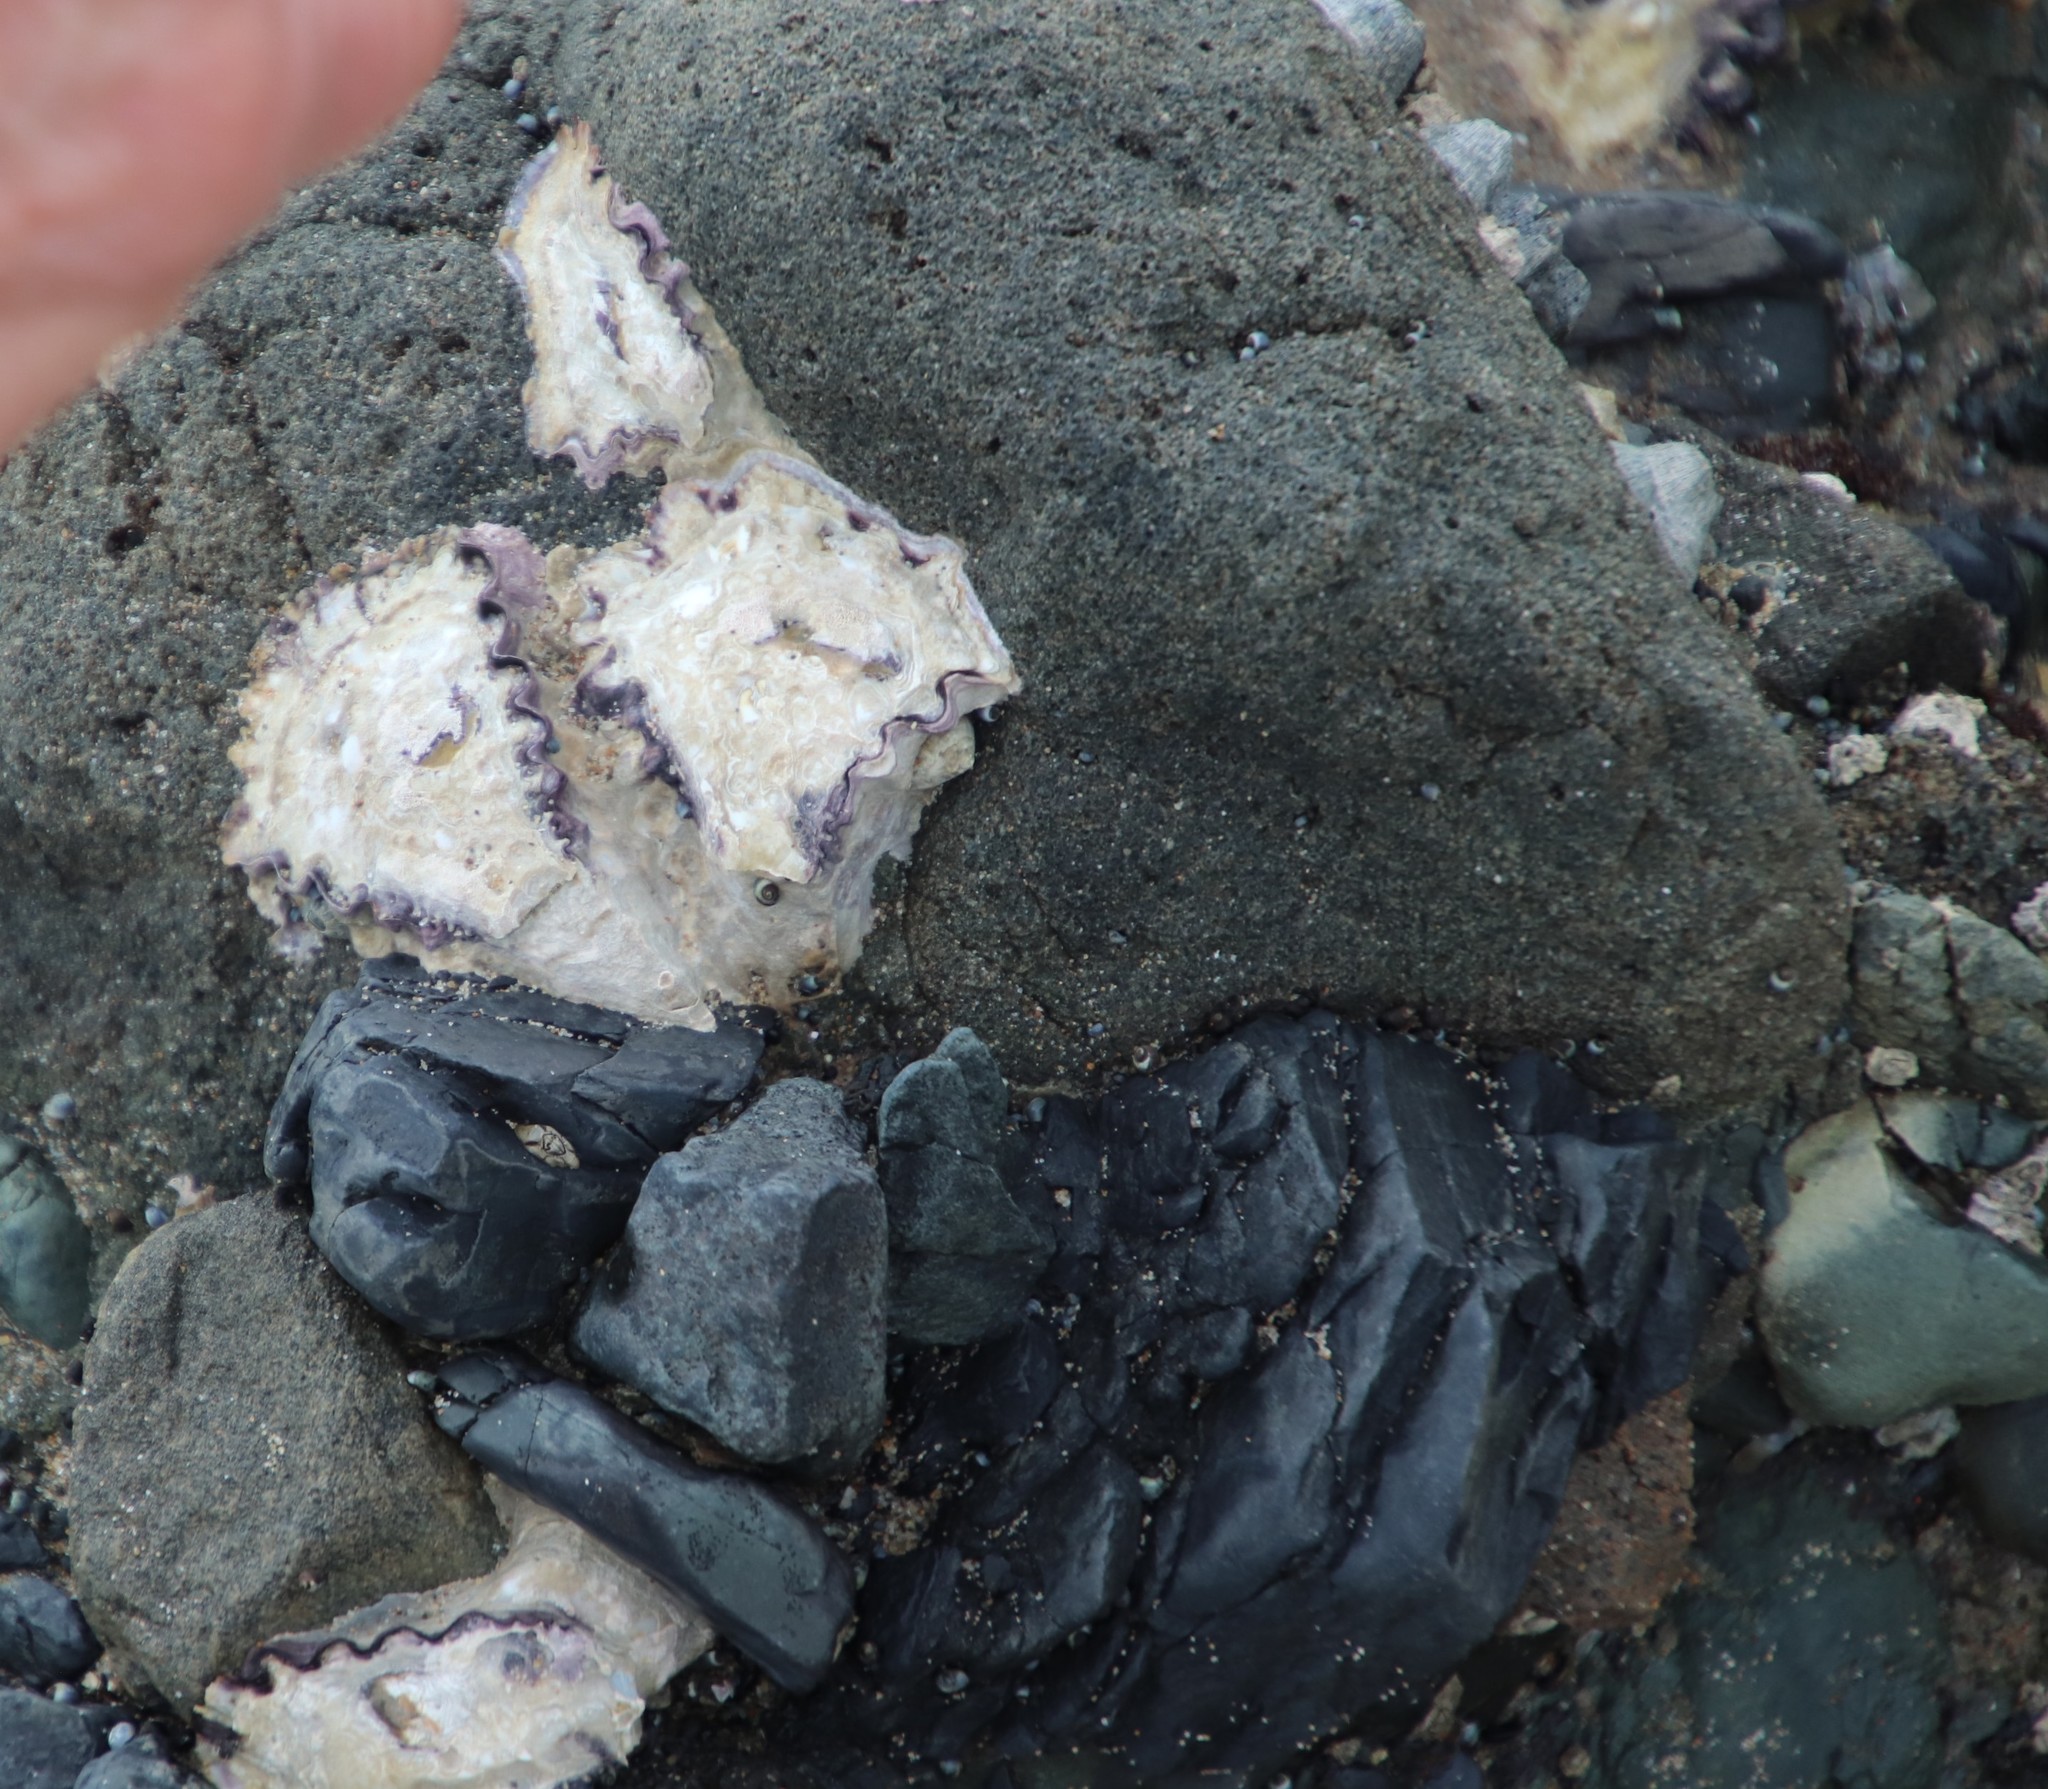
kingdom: Animalia
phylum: Mollusca
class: Bivalvia
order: Ostreida
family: Ostreidae
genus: Saccostrea
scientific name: Saccostrea cuccullata
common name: Natal rock oyster
